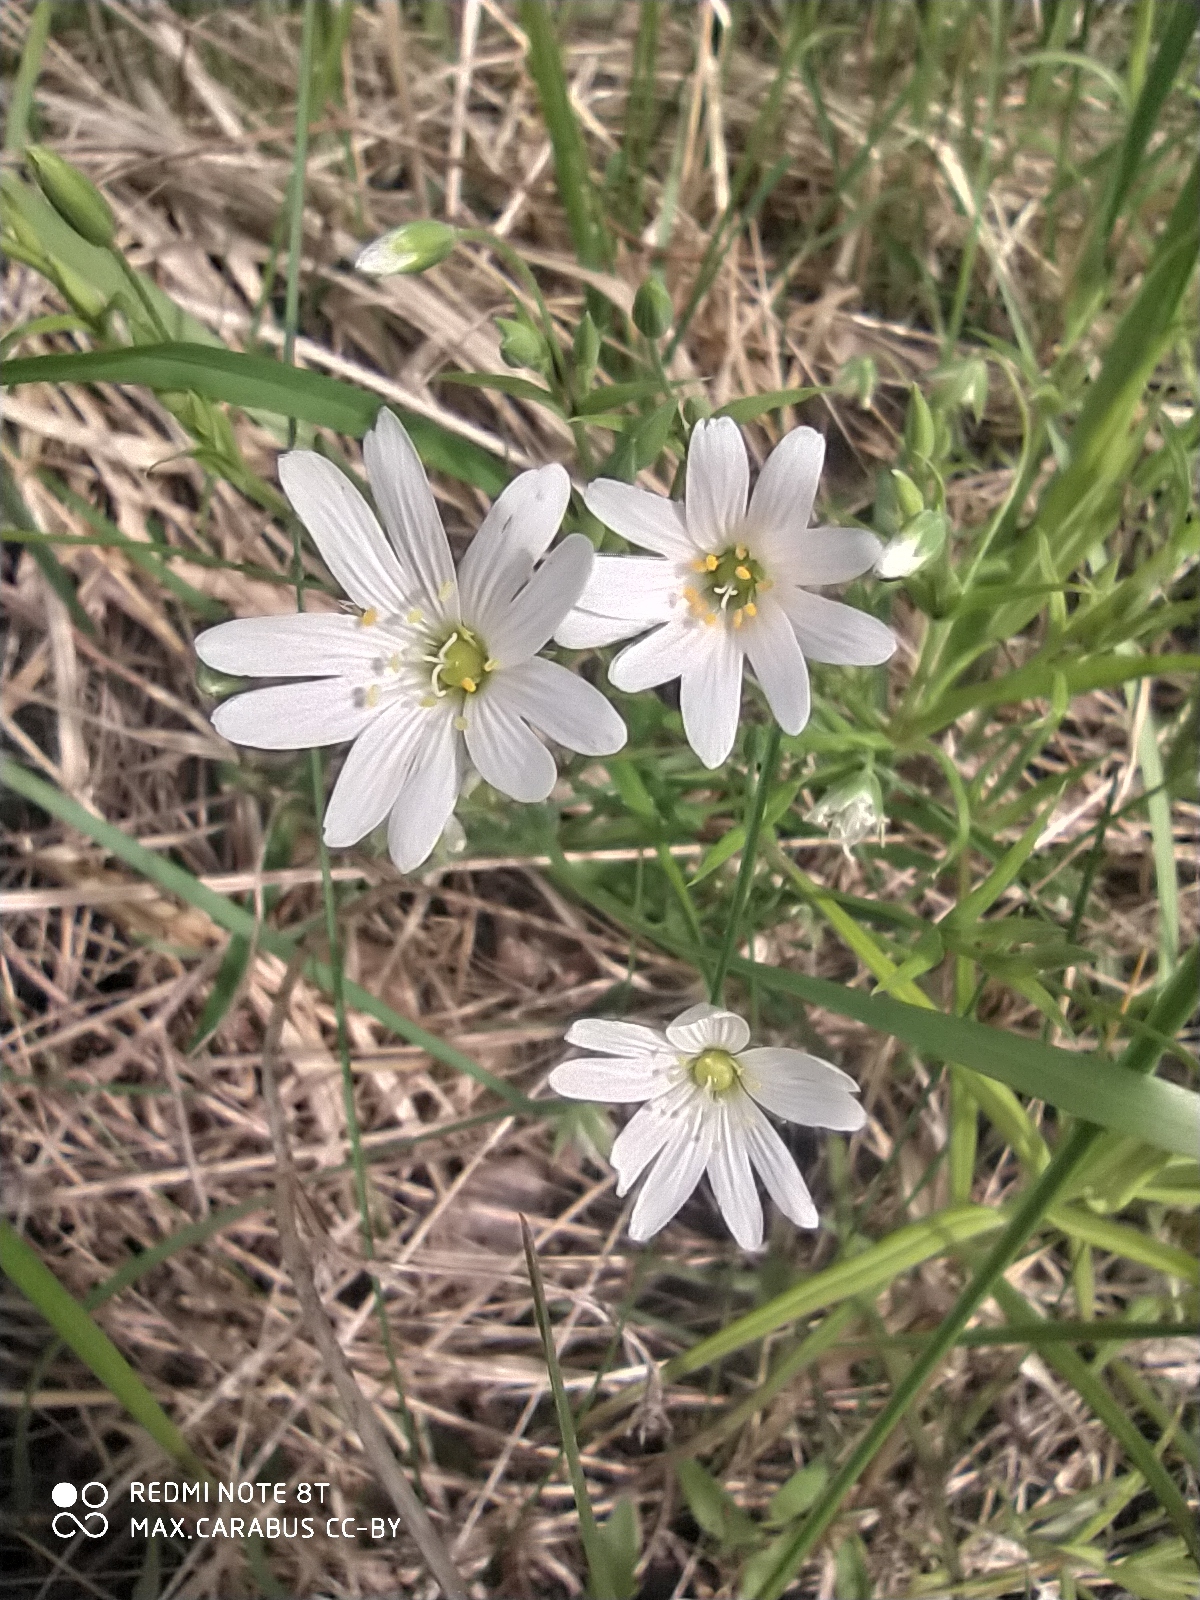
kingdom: Plantae
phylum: Tracheophyta
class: Magnoliopsida
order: Caryophyllales
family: Caryophyllaceae
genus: Rabelera
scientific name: Rabelera holostea
